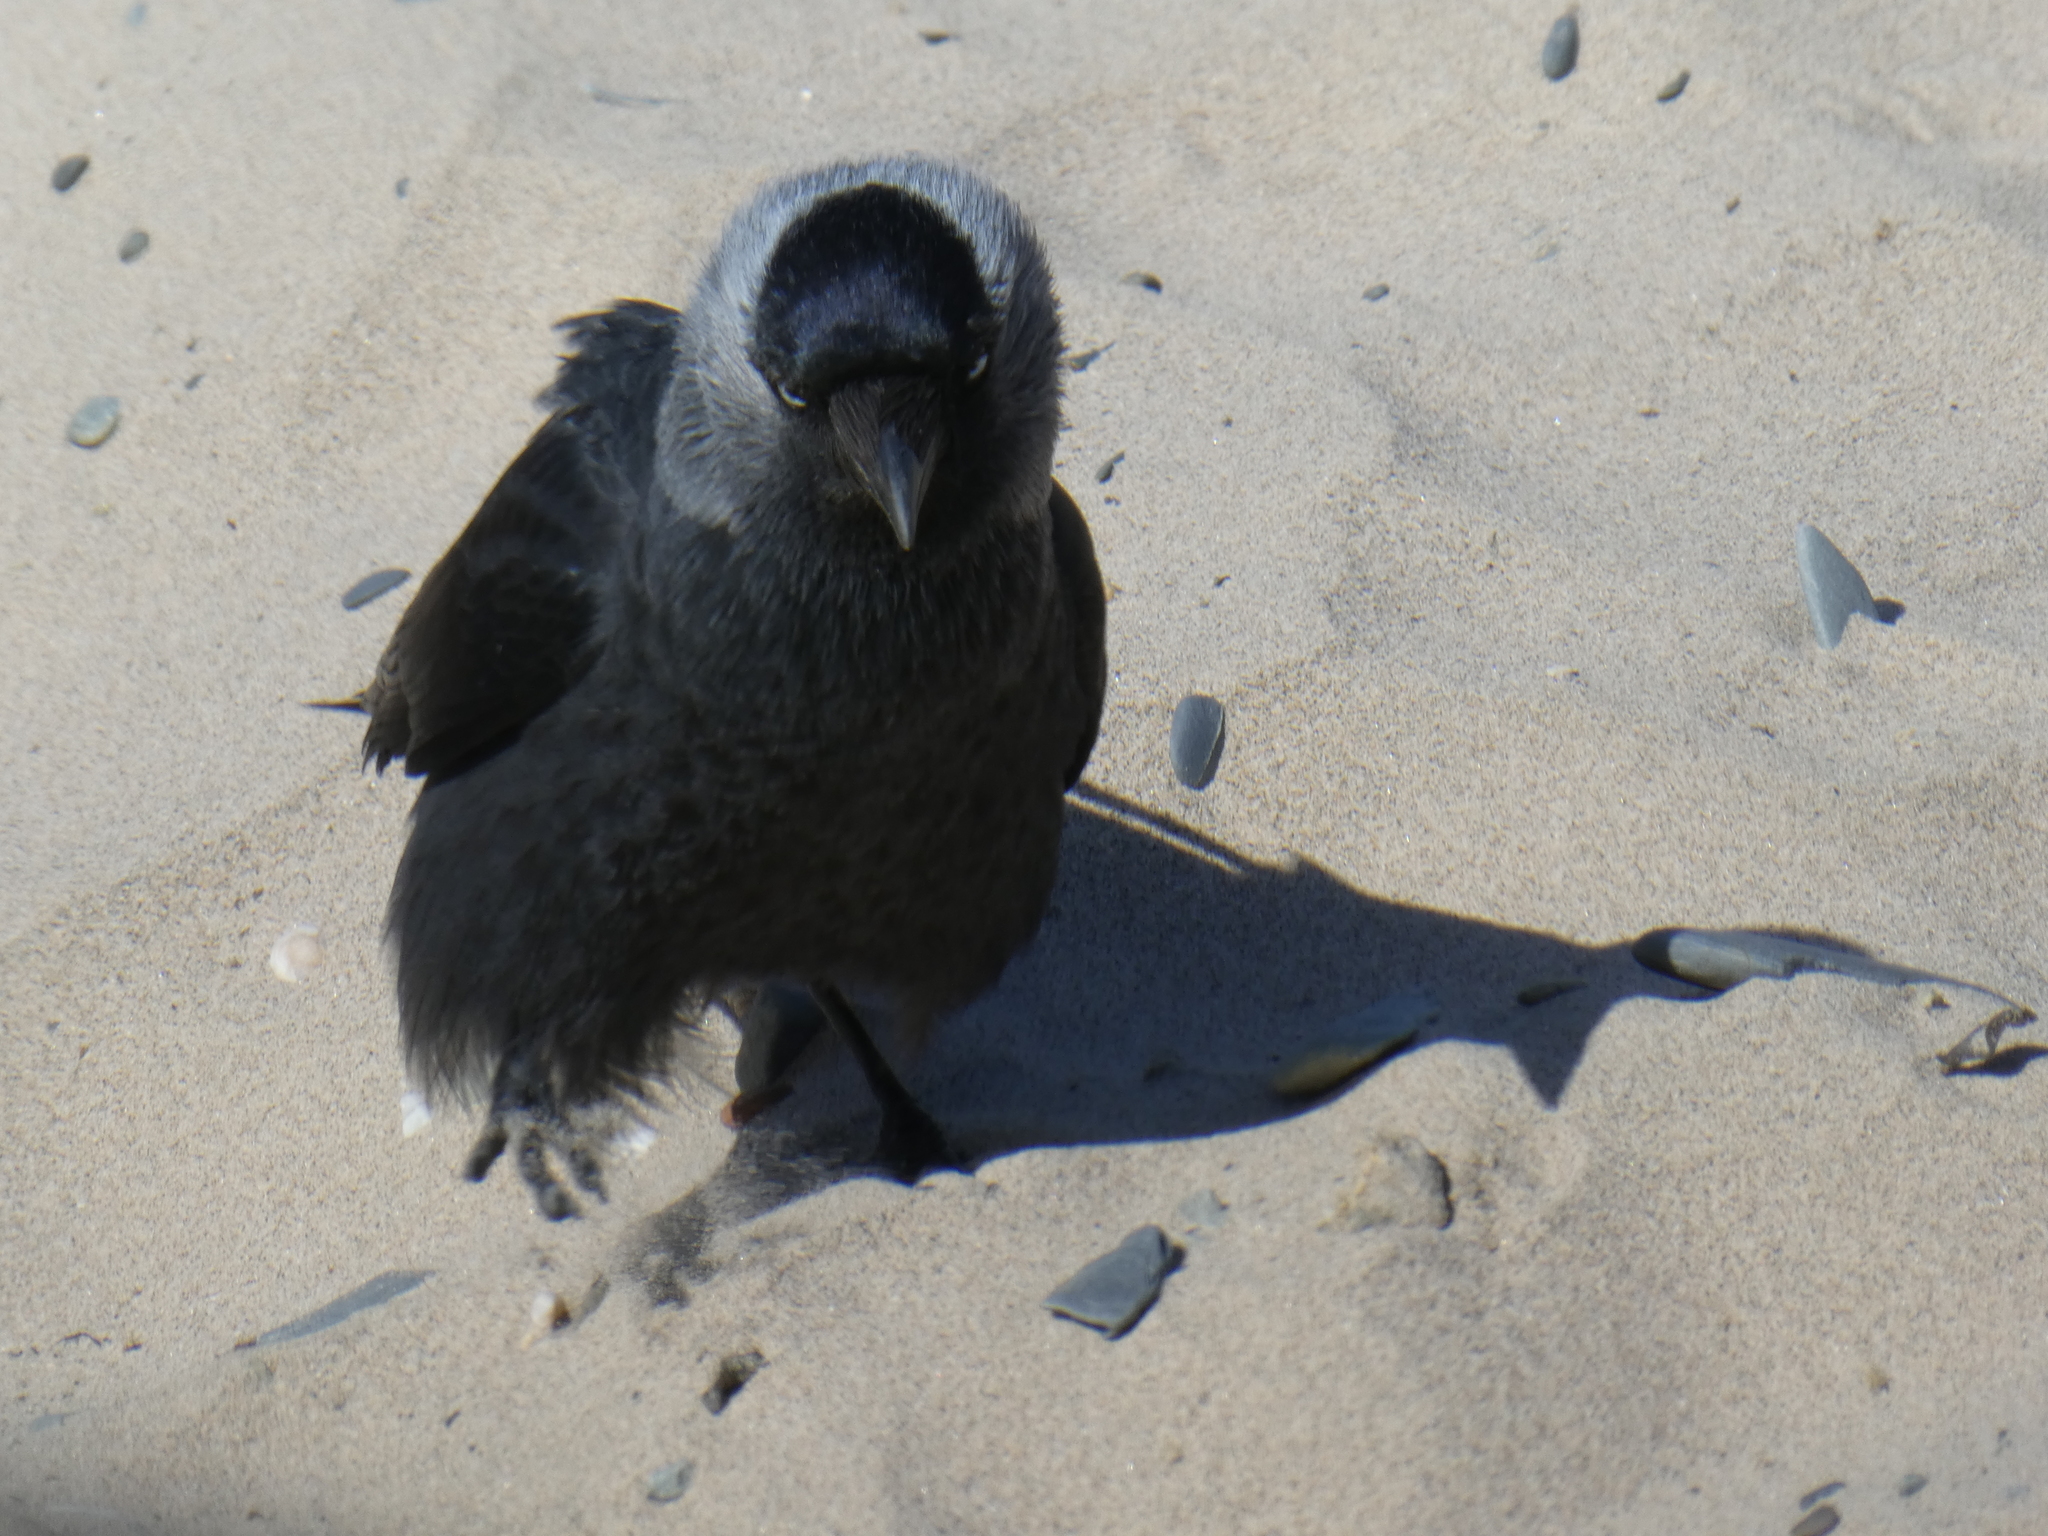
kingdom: Animalia
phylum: Chordata
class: Aves
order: Passeriformes
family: Corvidae
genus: Coloeus
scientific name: Coloeus monedula
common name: Western jackdaw
